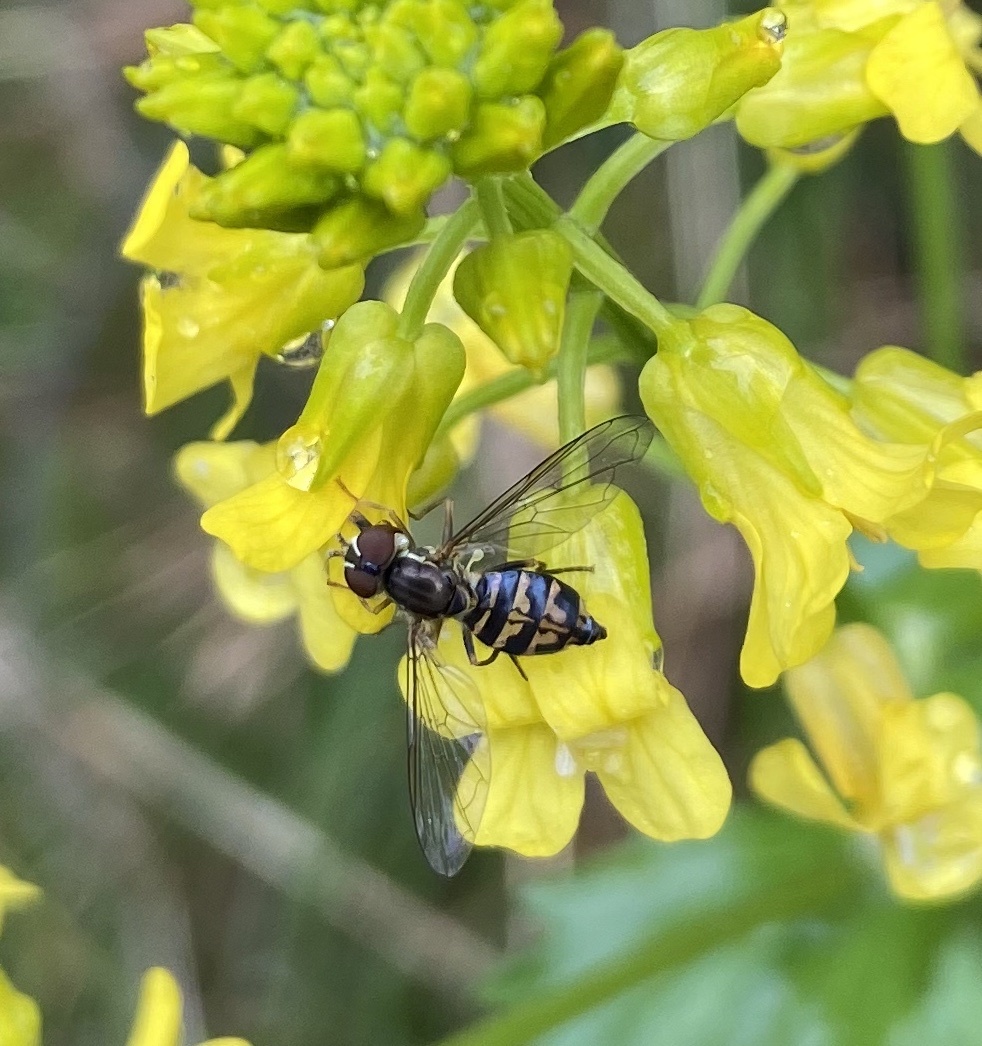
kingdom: Animalia
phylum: Arthropoda
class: Insecta
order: Diptera
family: Syrphidae
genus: Toxomerus
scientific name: Toxomerus geminatus
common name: Eastern calligrapher
